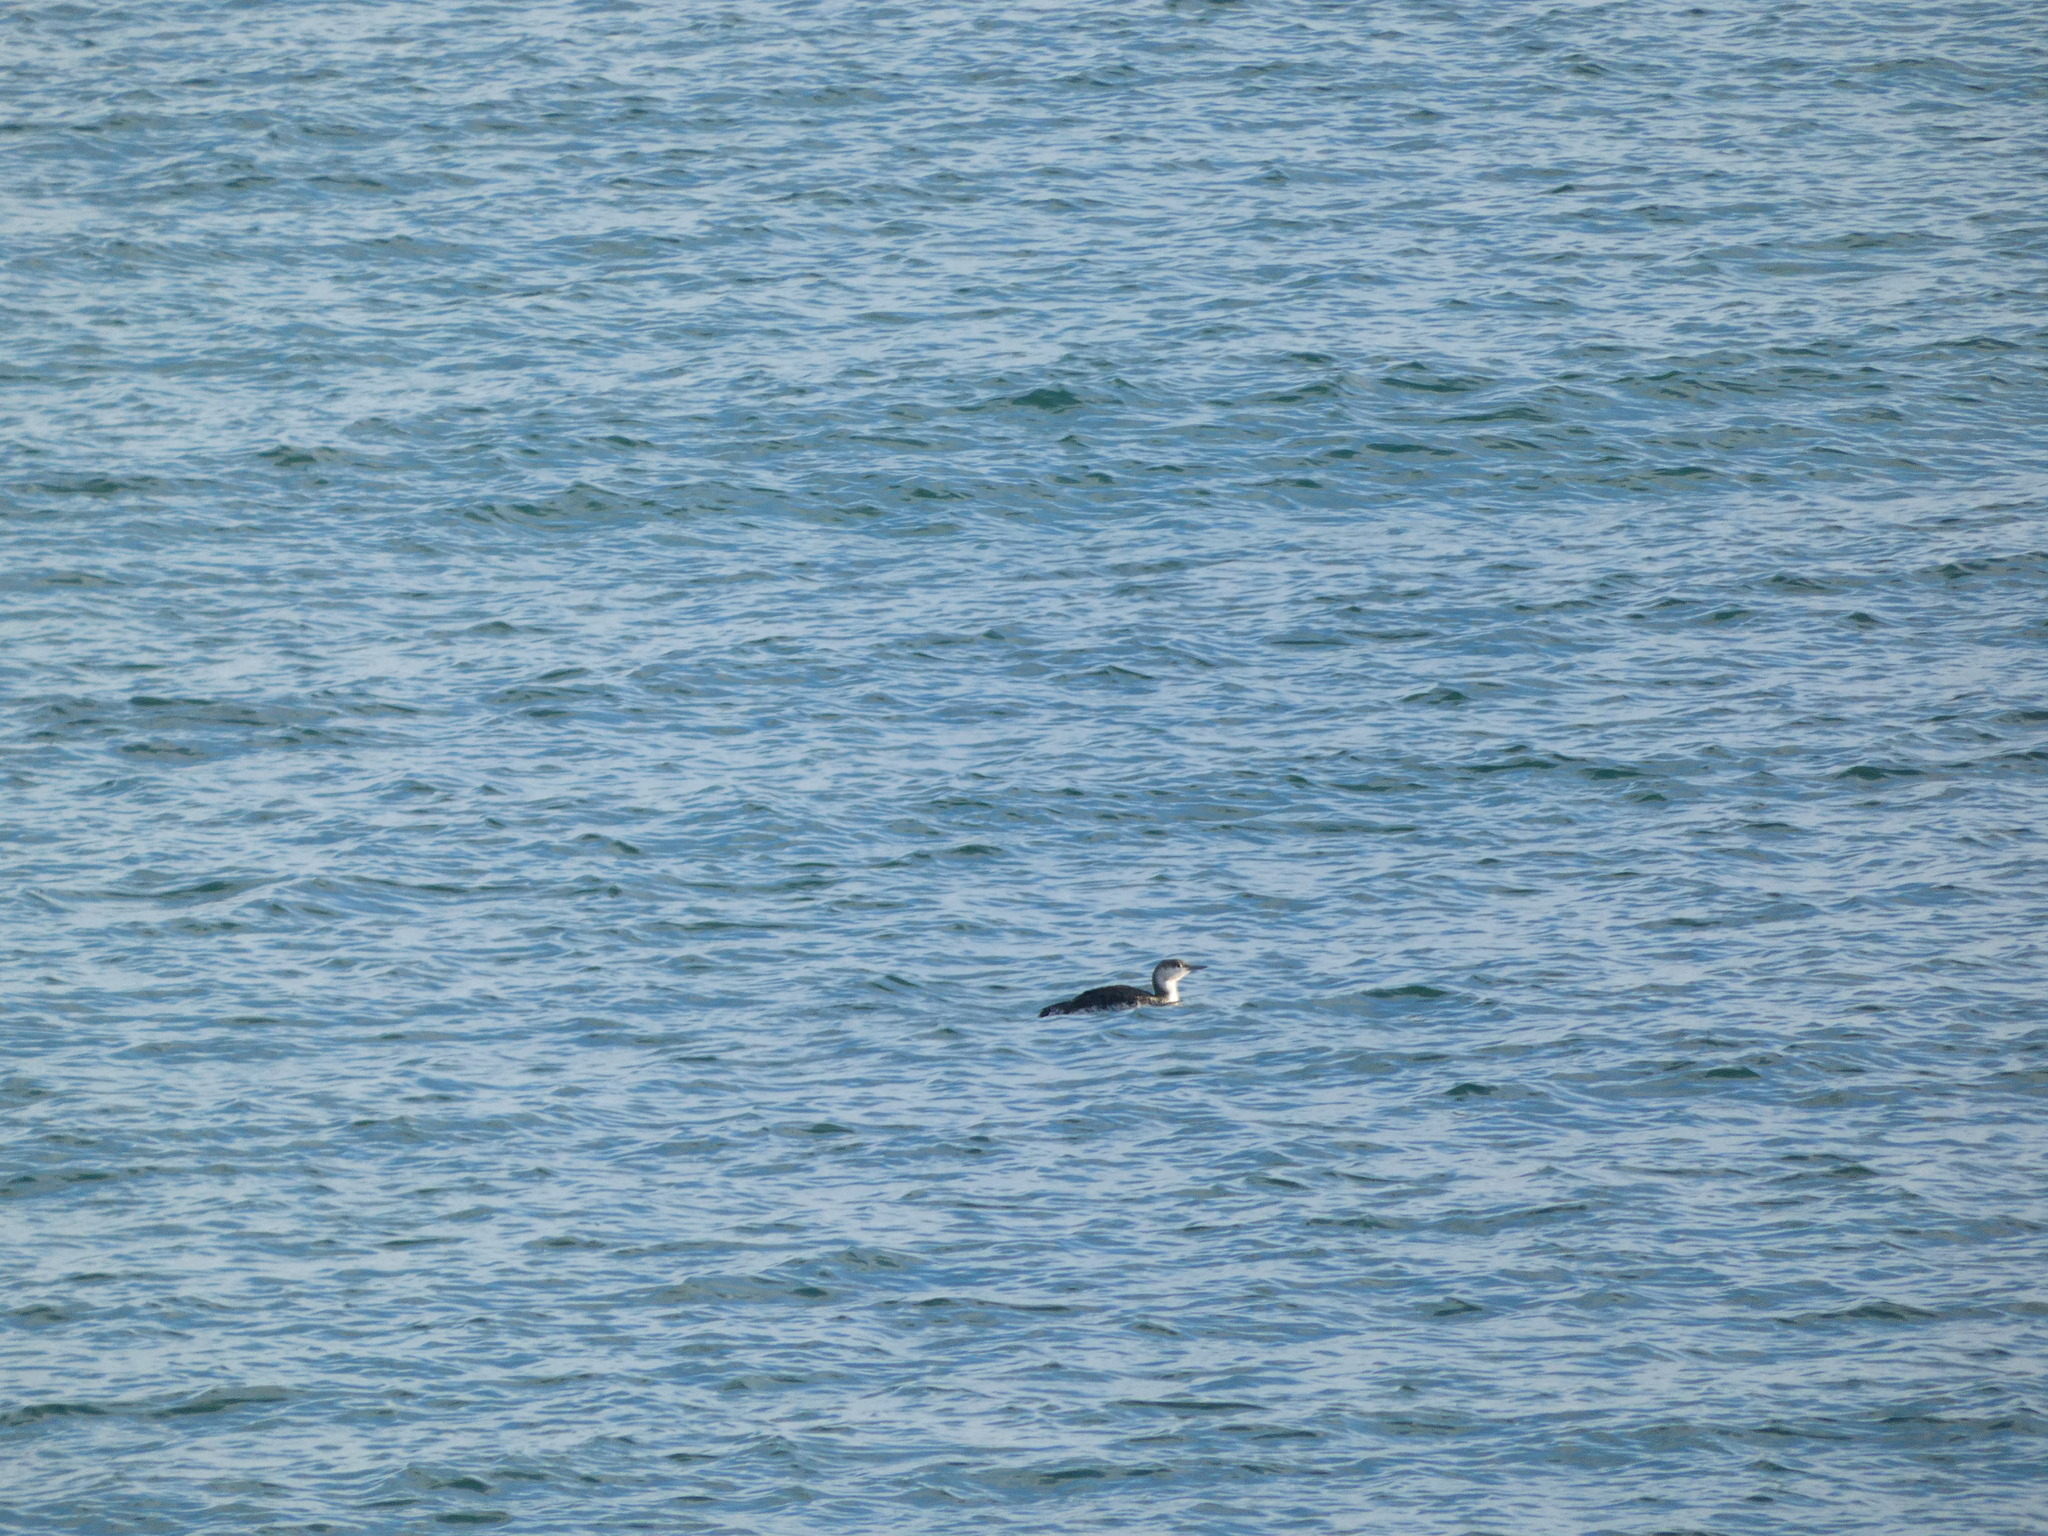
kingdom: Animalia
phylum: Chordata
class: Aves
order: Gaviiformes
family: Gaviidae
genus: Gavia
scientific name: Gavia stellata
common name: Red-throated loon
